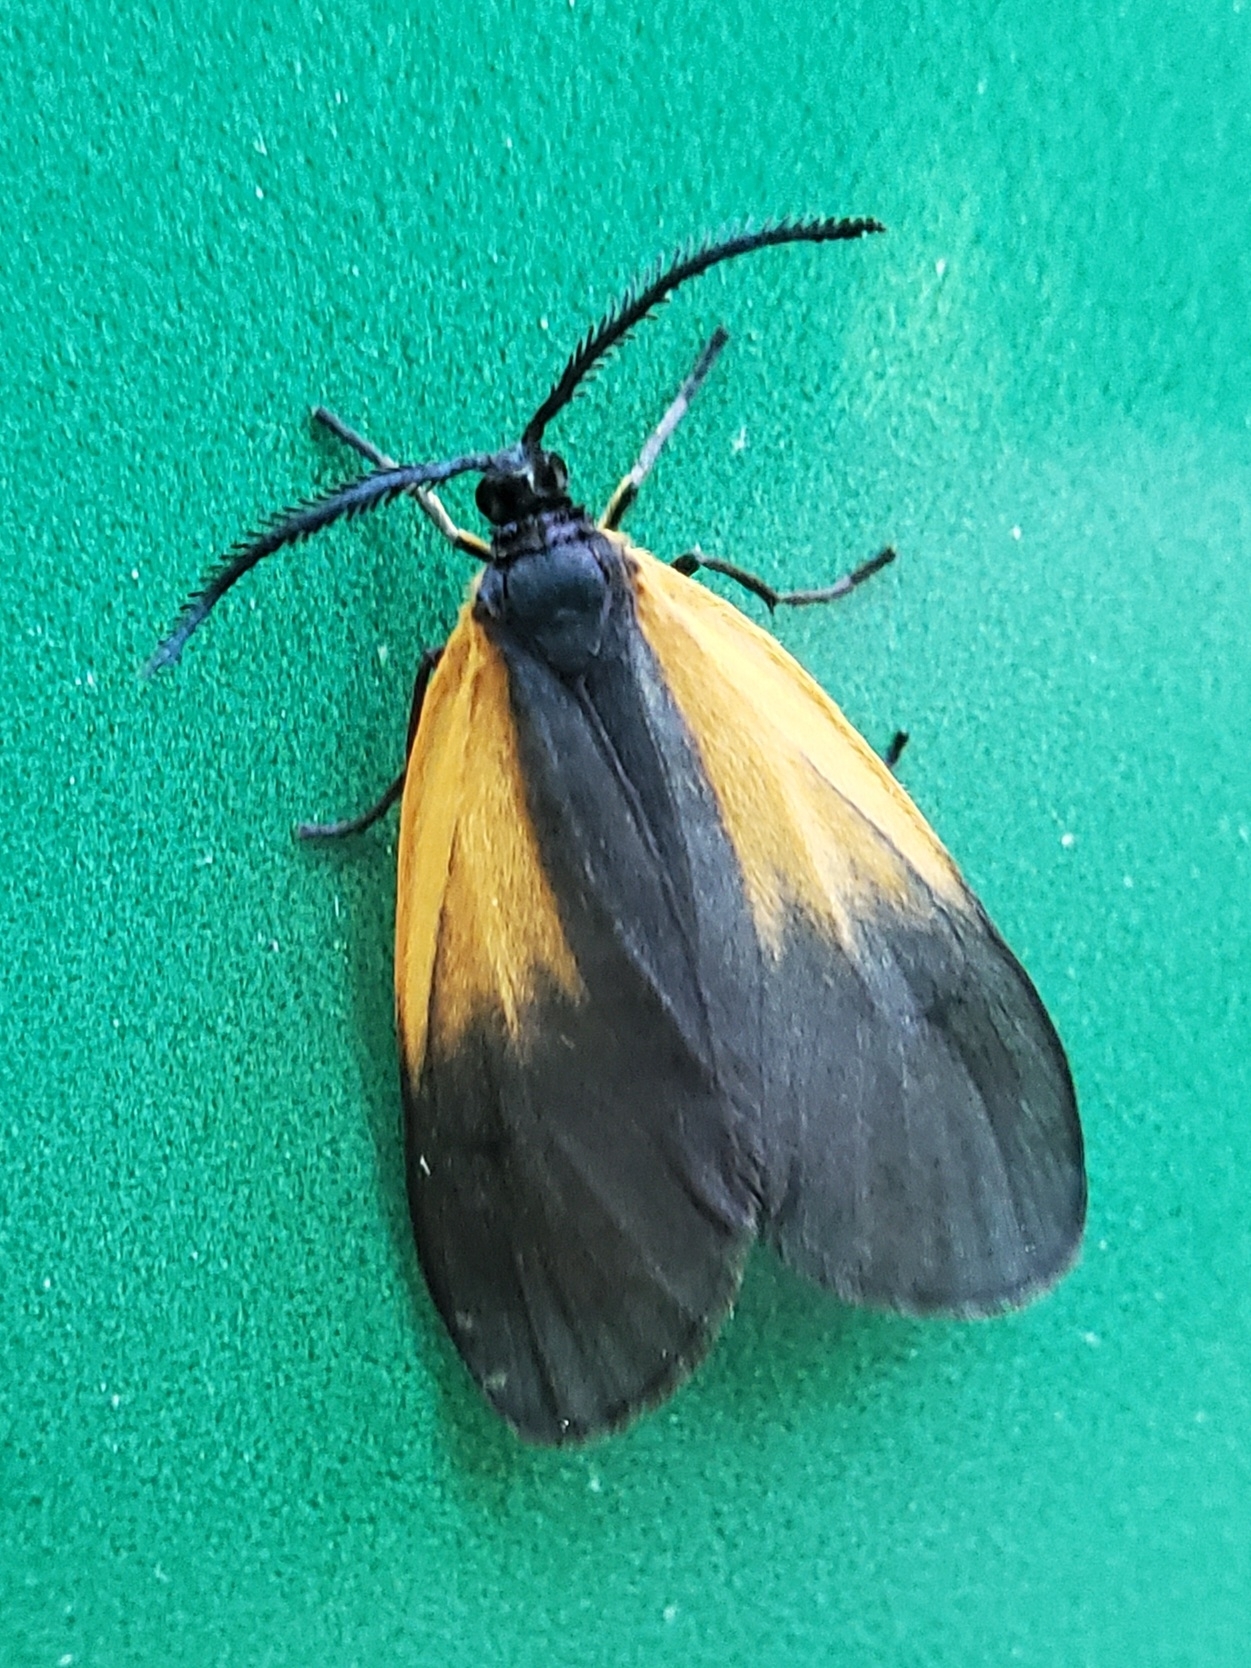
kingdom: Animalia
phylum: Arthropoda
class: Insecta
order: Lepidoptera
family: Zygaenidae
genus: Malthaca
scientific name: Malthaca dimidiata
